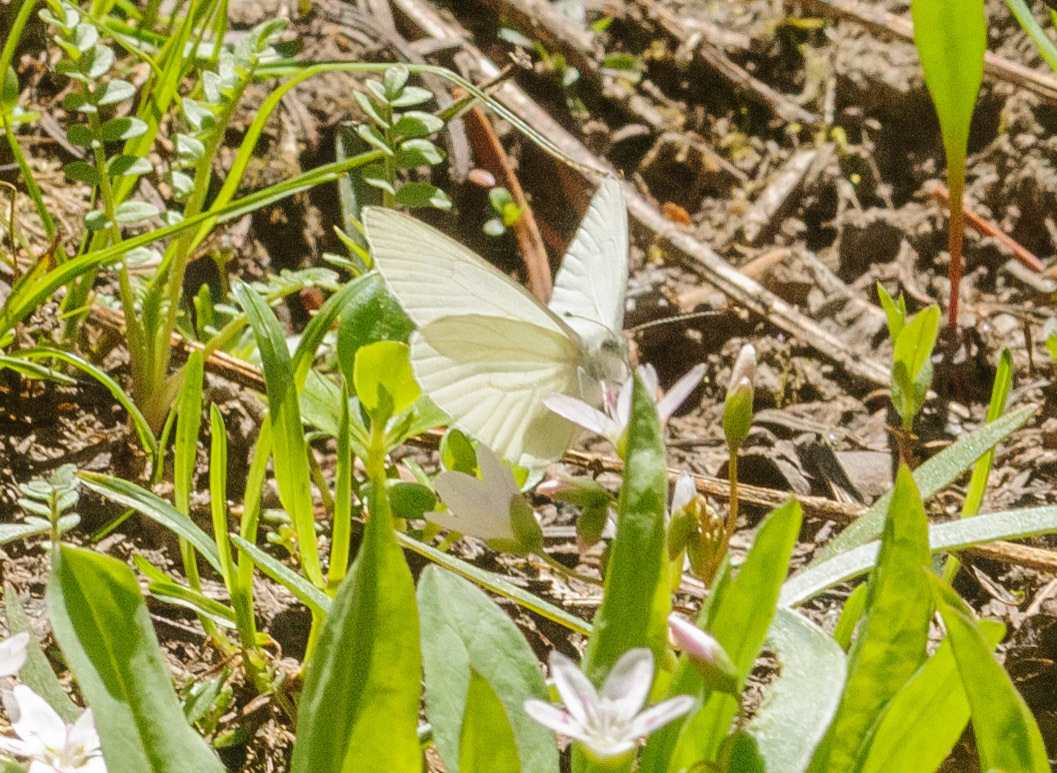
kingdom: Animalia
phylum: Arthropoda
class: Insecta
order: Lepidoptera
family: Pieridae
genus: Pieris
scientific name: Pieris marginalis
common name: Margined white
